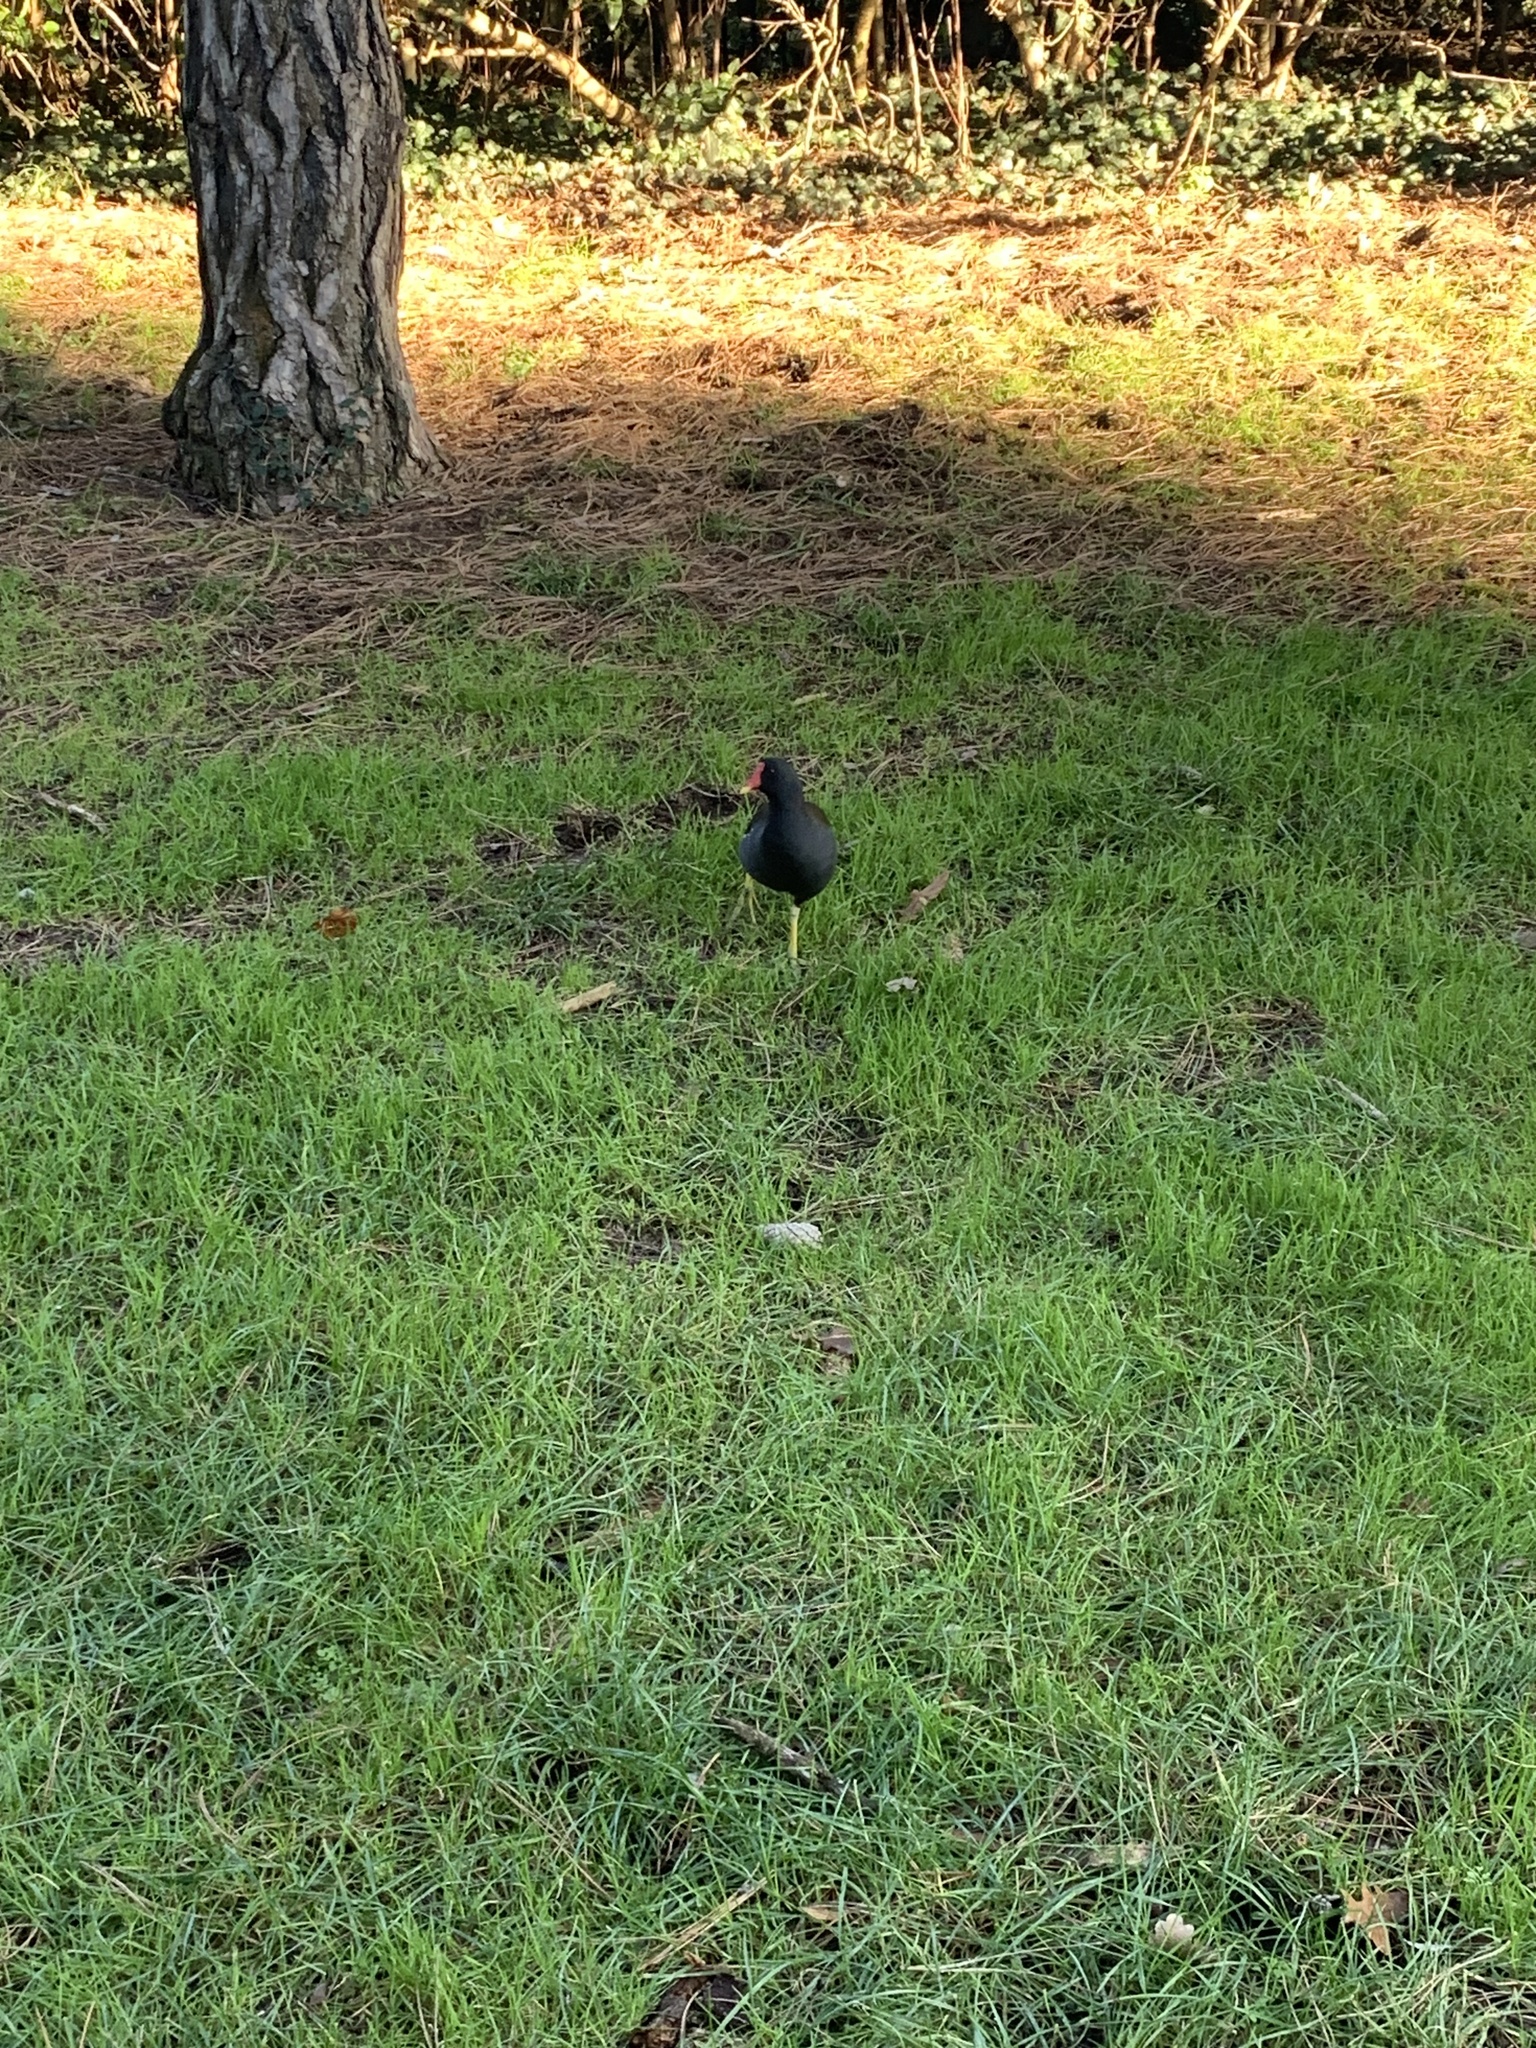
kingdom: Animalia
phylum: Chordata
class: Aves
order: Gruiformes
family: Rallidae
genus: Gallinula
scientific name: Gallinula chloropus
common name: Common moorhen
